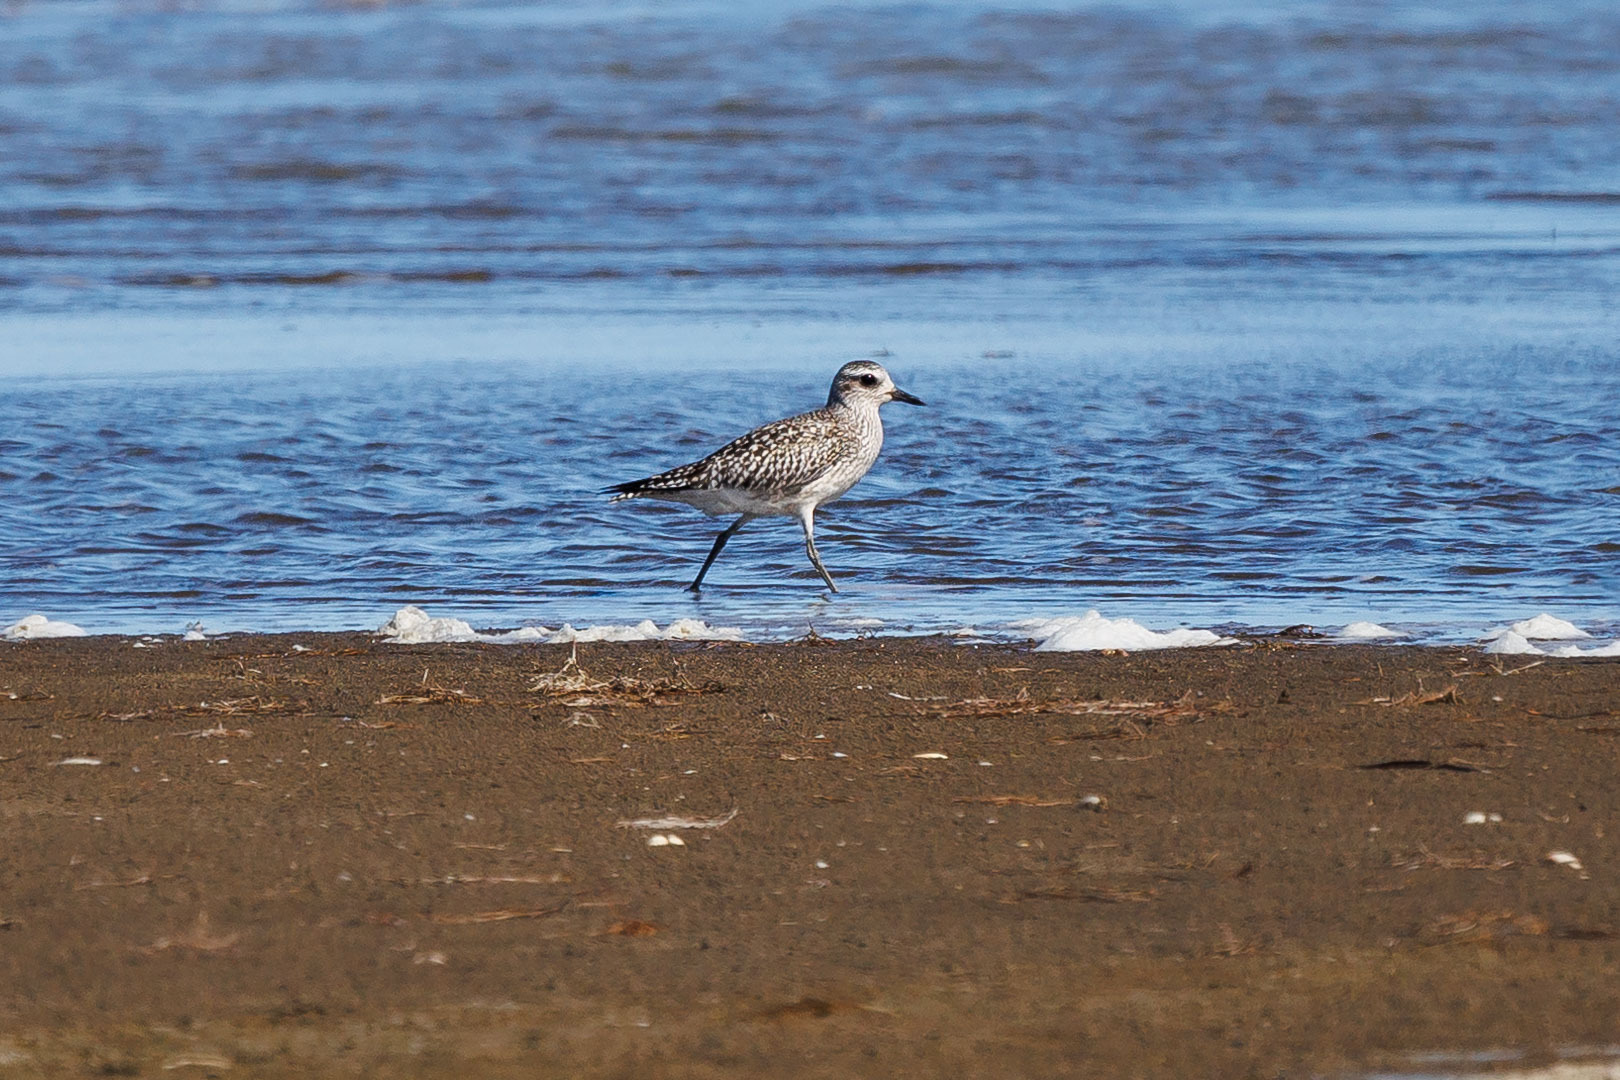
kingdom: Animalia
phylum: Chordata
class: Aves
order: Charadriiformes
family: Charadriidae
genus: Pluvialis
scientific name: Pluvialis squatarola
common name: Grey plover
